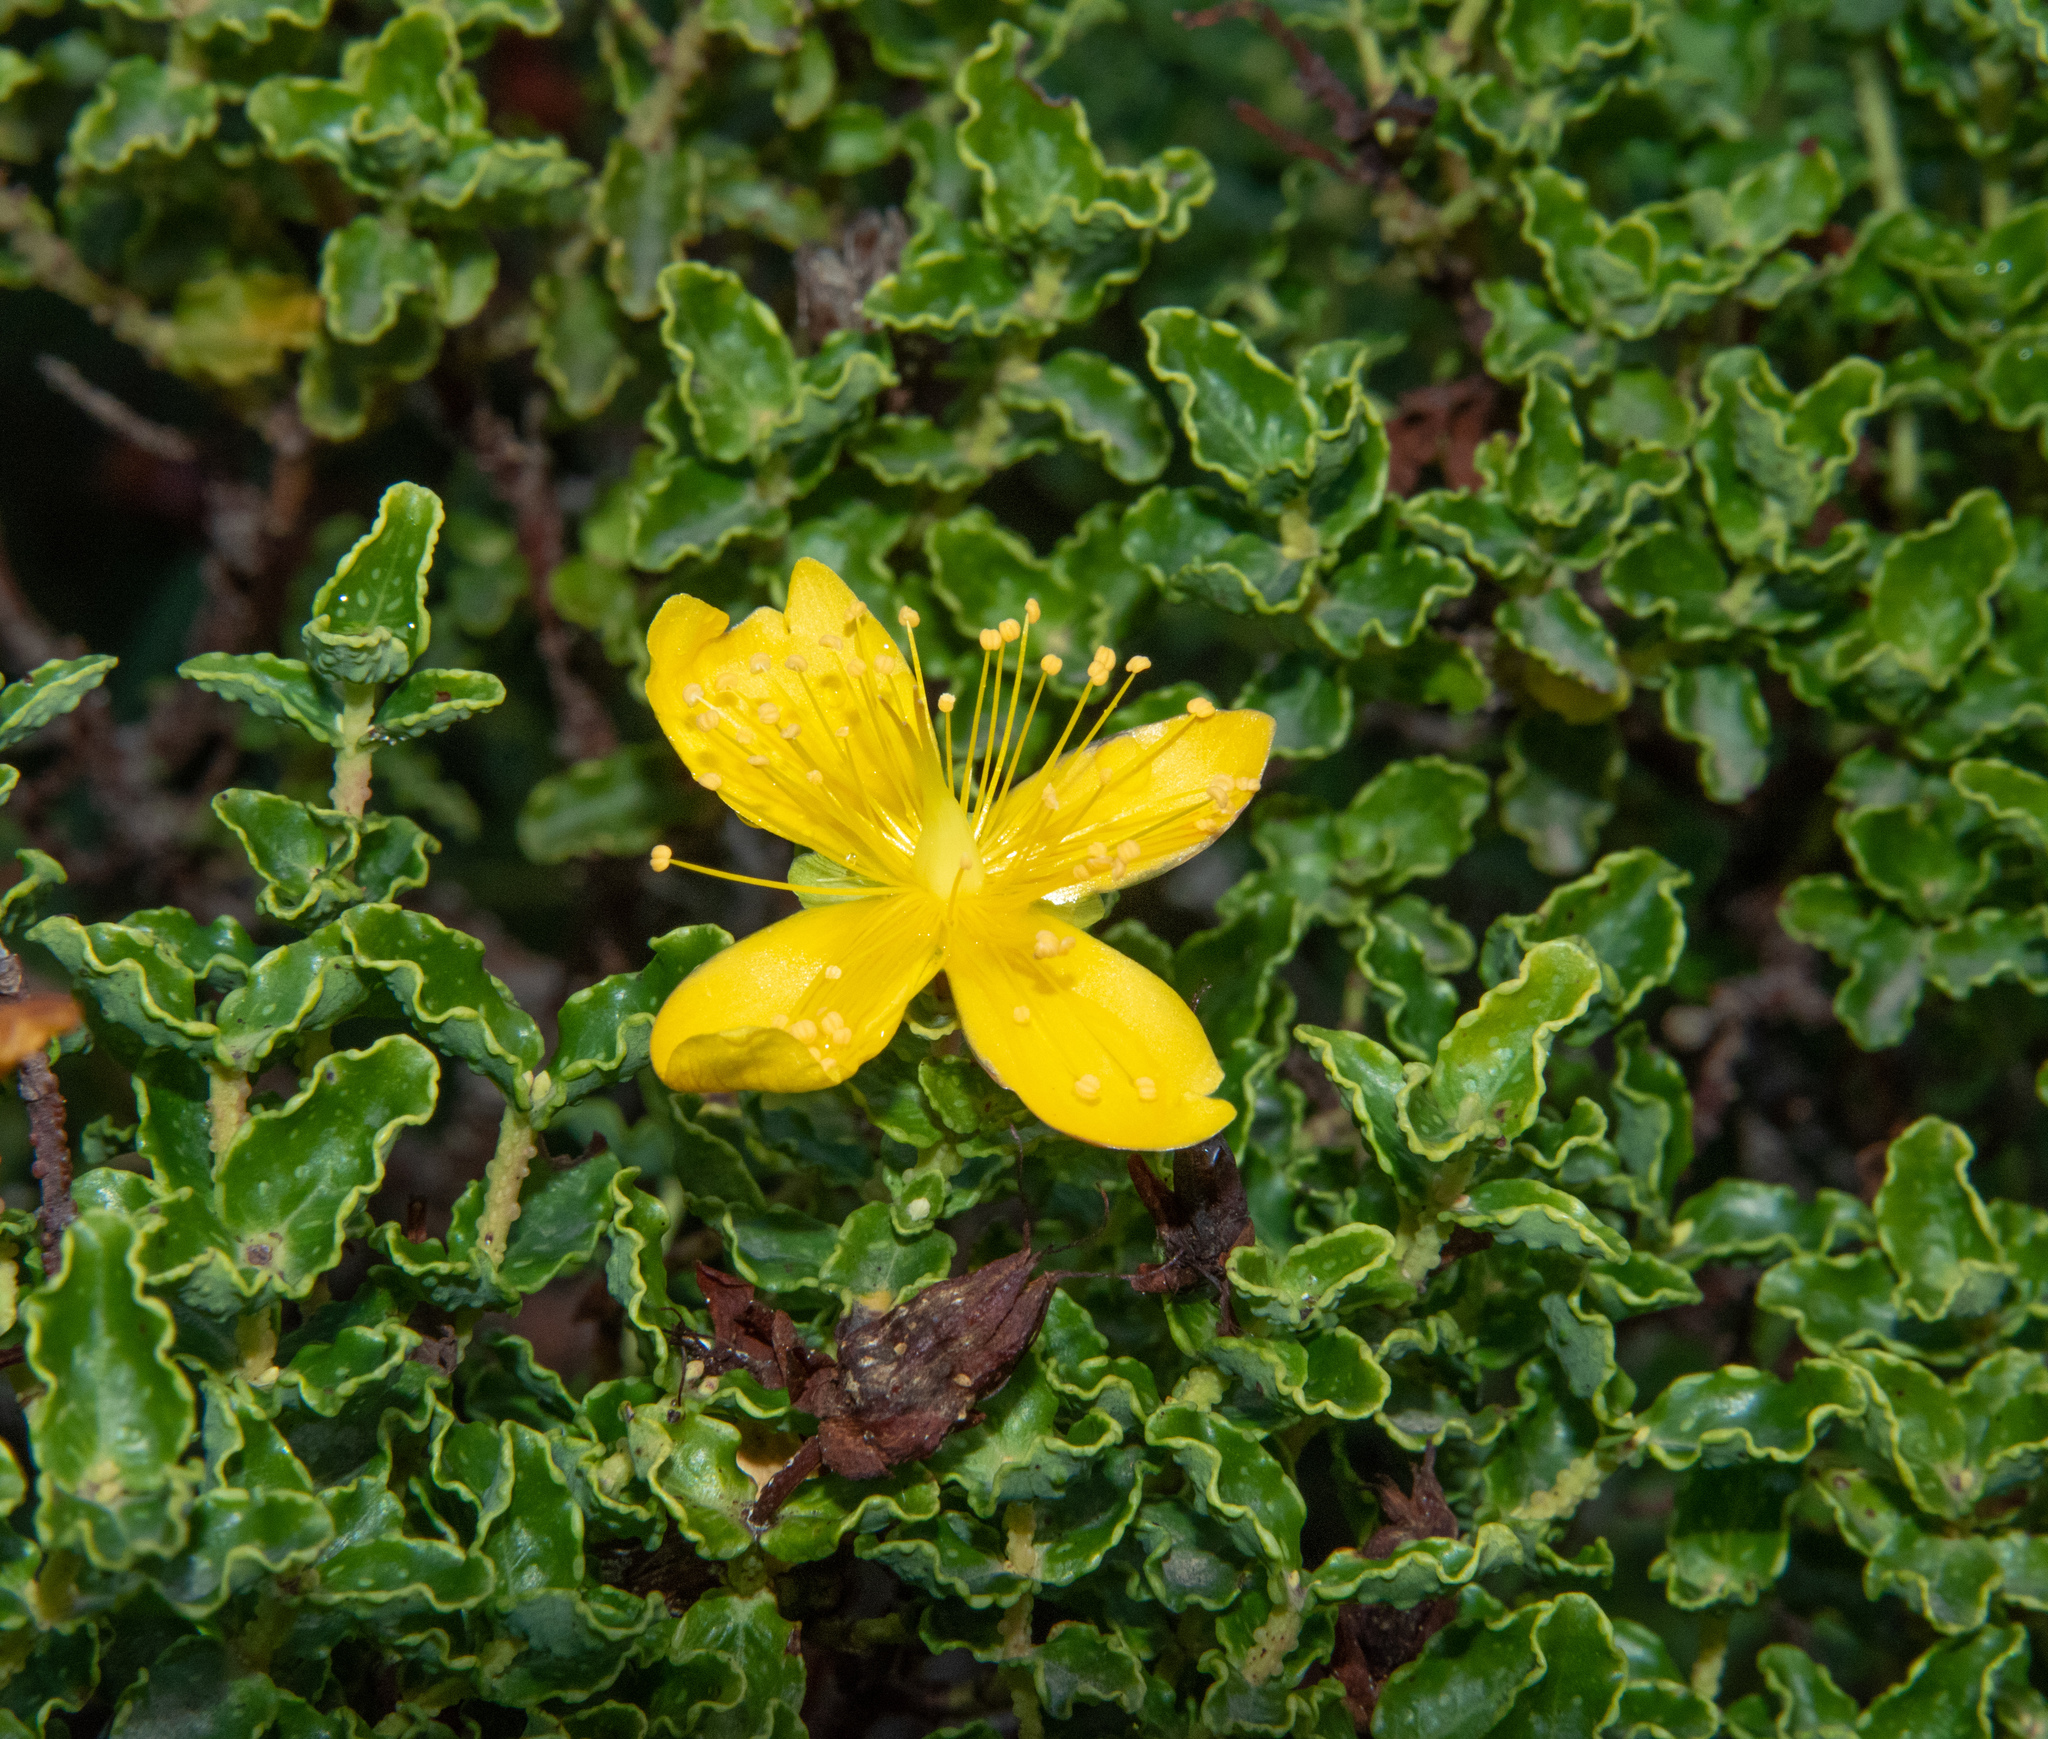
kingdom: Plantae
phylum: Tracheophyta
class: Magnoliopsida
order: Malpighiales
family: Hypericaceae
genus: Hypericum
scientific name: Hypericum balearicum
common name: Majorca st john's wort
